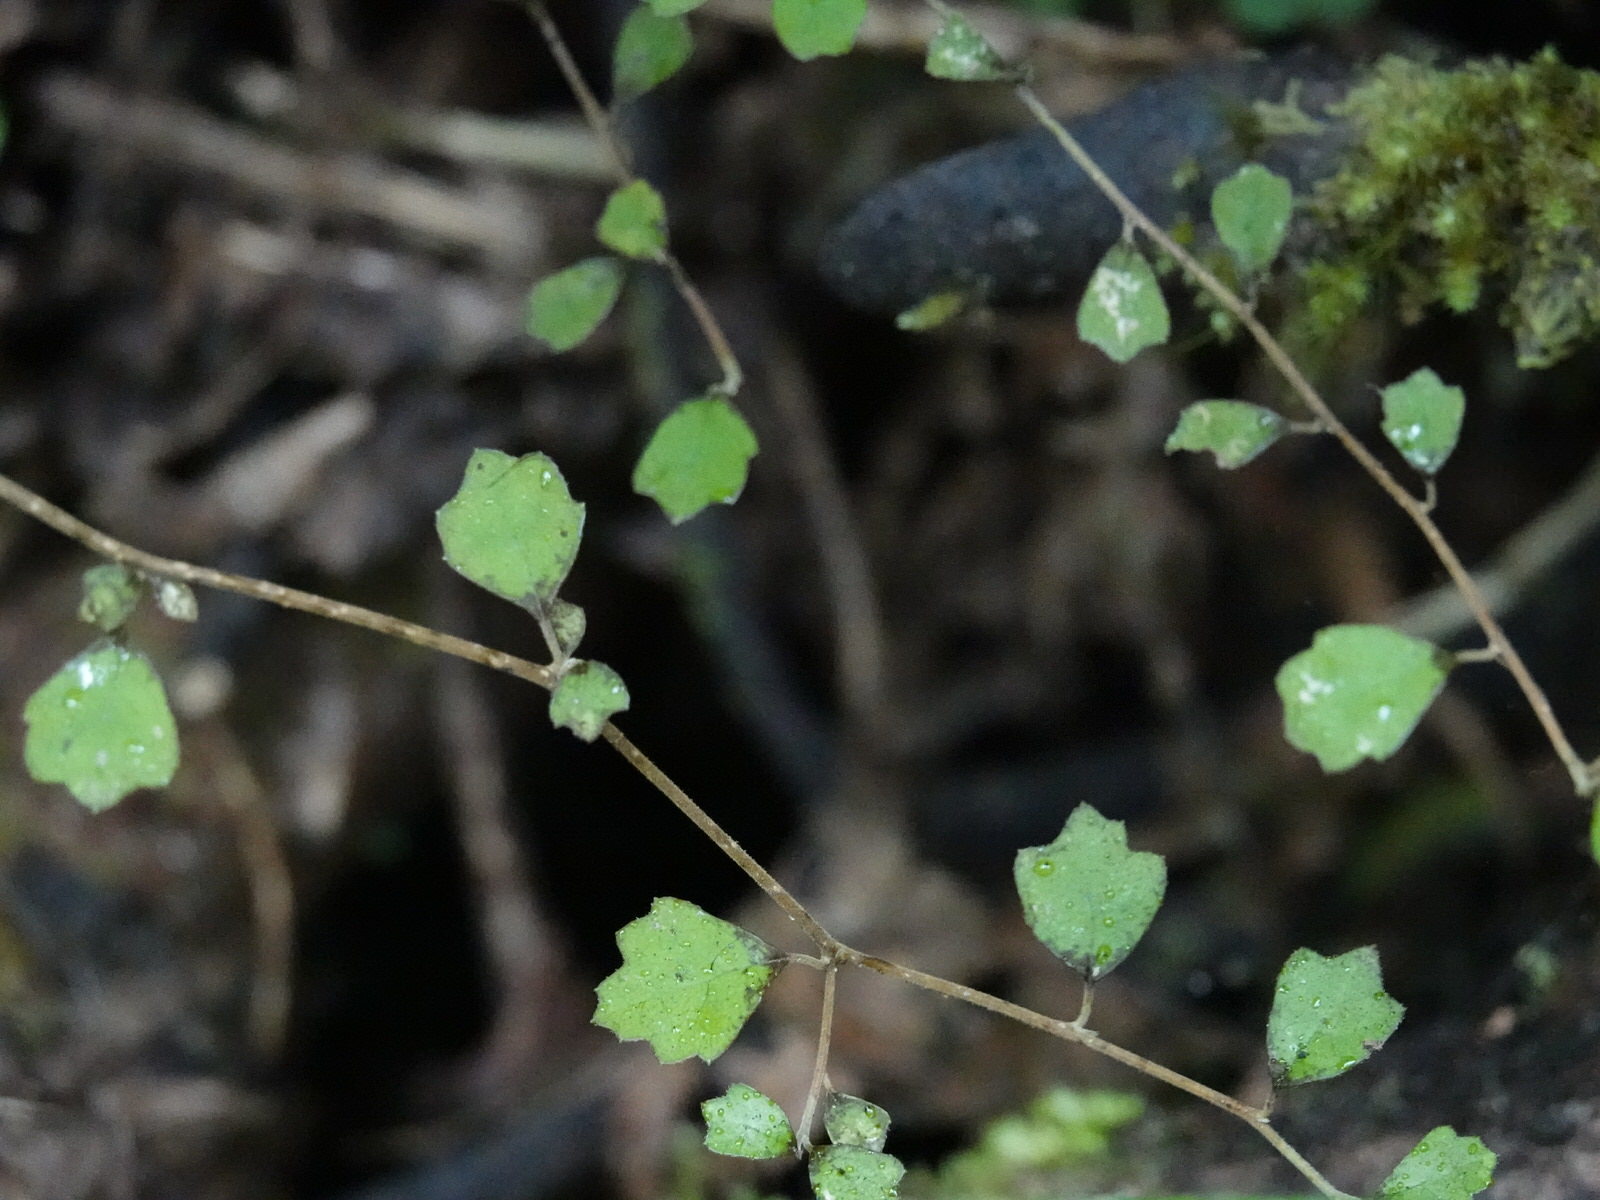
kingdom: Plantae
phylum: Tracheophyta
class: Magnoliopsida
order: Apiales
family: Pennantiaceae
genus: Pennantia
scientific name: Pennantia corymbosa
